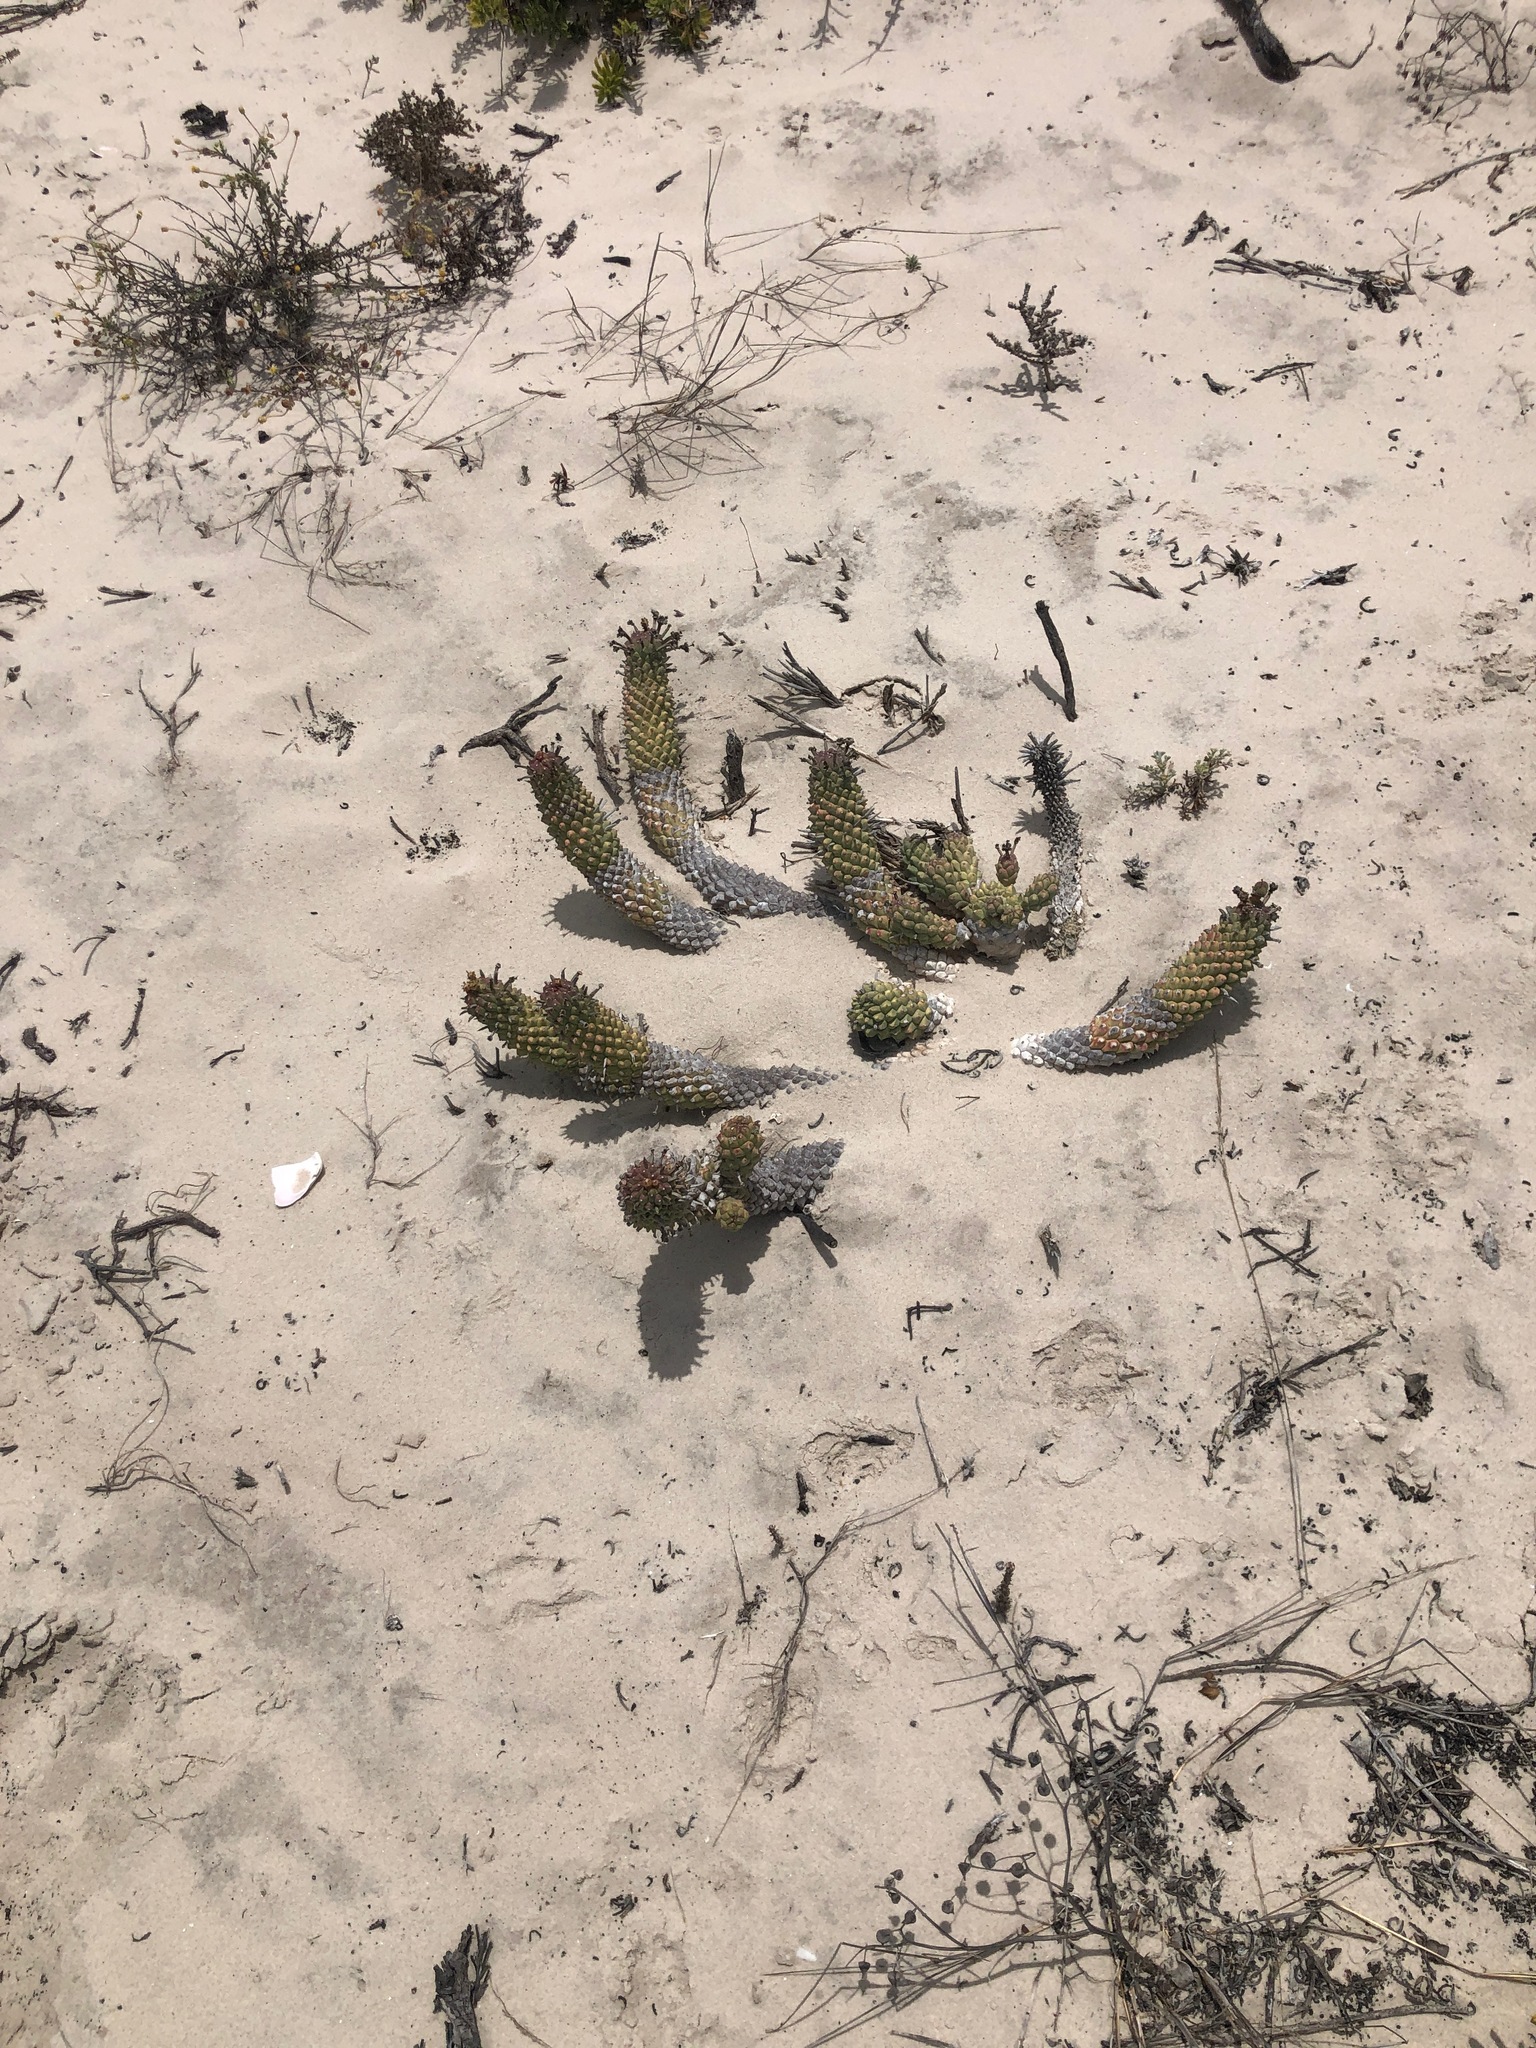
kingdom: Plantae
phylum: Tracheophyta
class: Magnoliopsida
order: Malpighiales
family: Euphorbiaceae
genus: Euphorbia
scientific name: Euphorbia caput-medusae
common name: Medusa's-head
